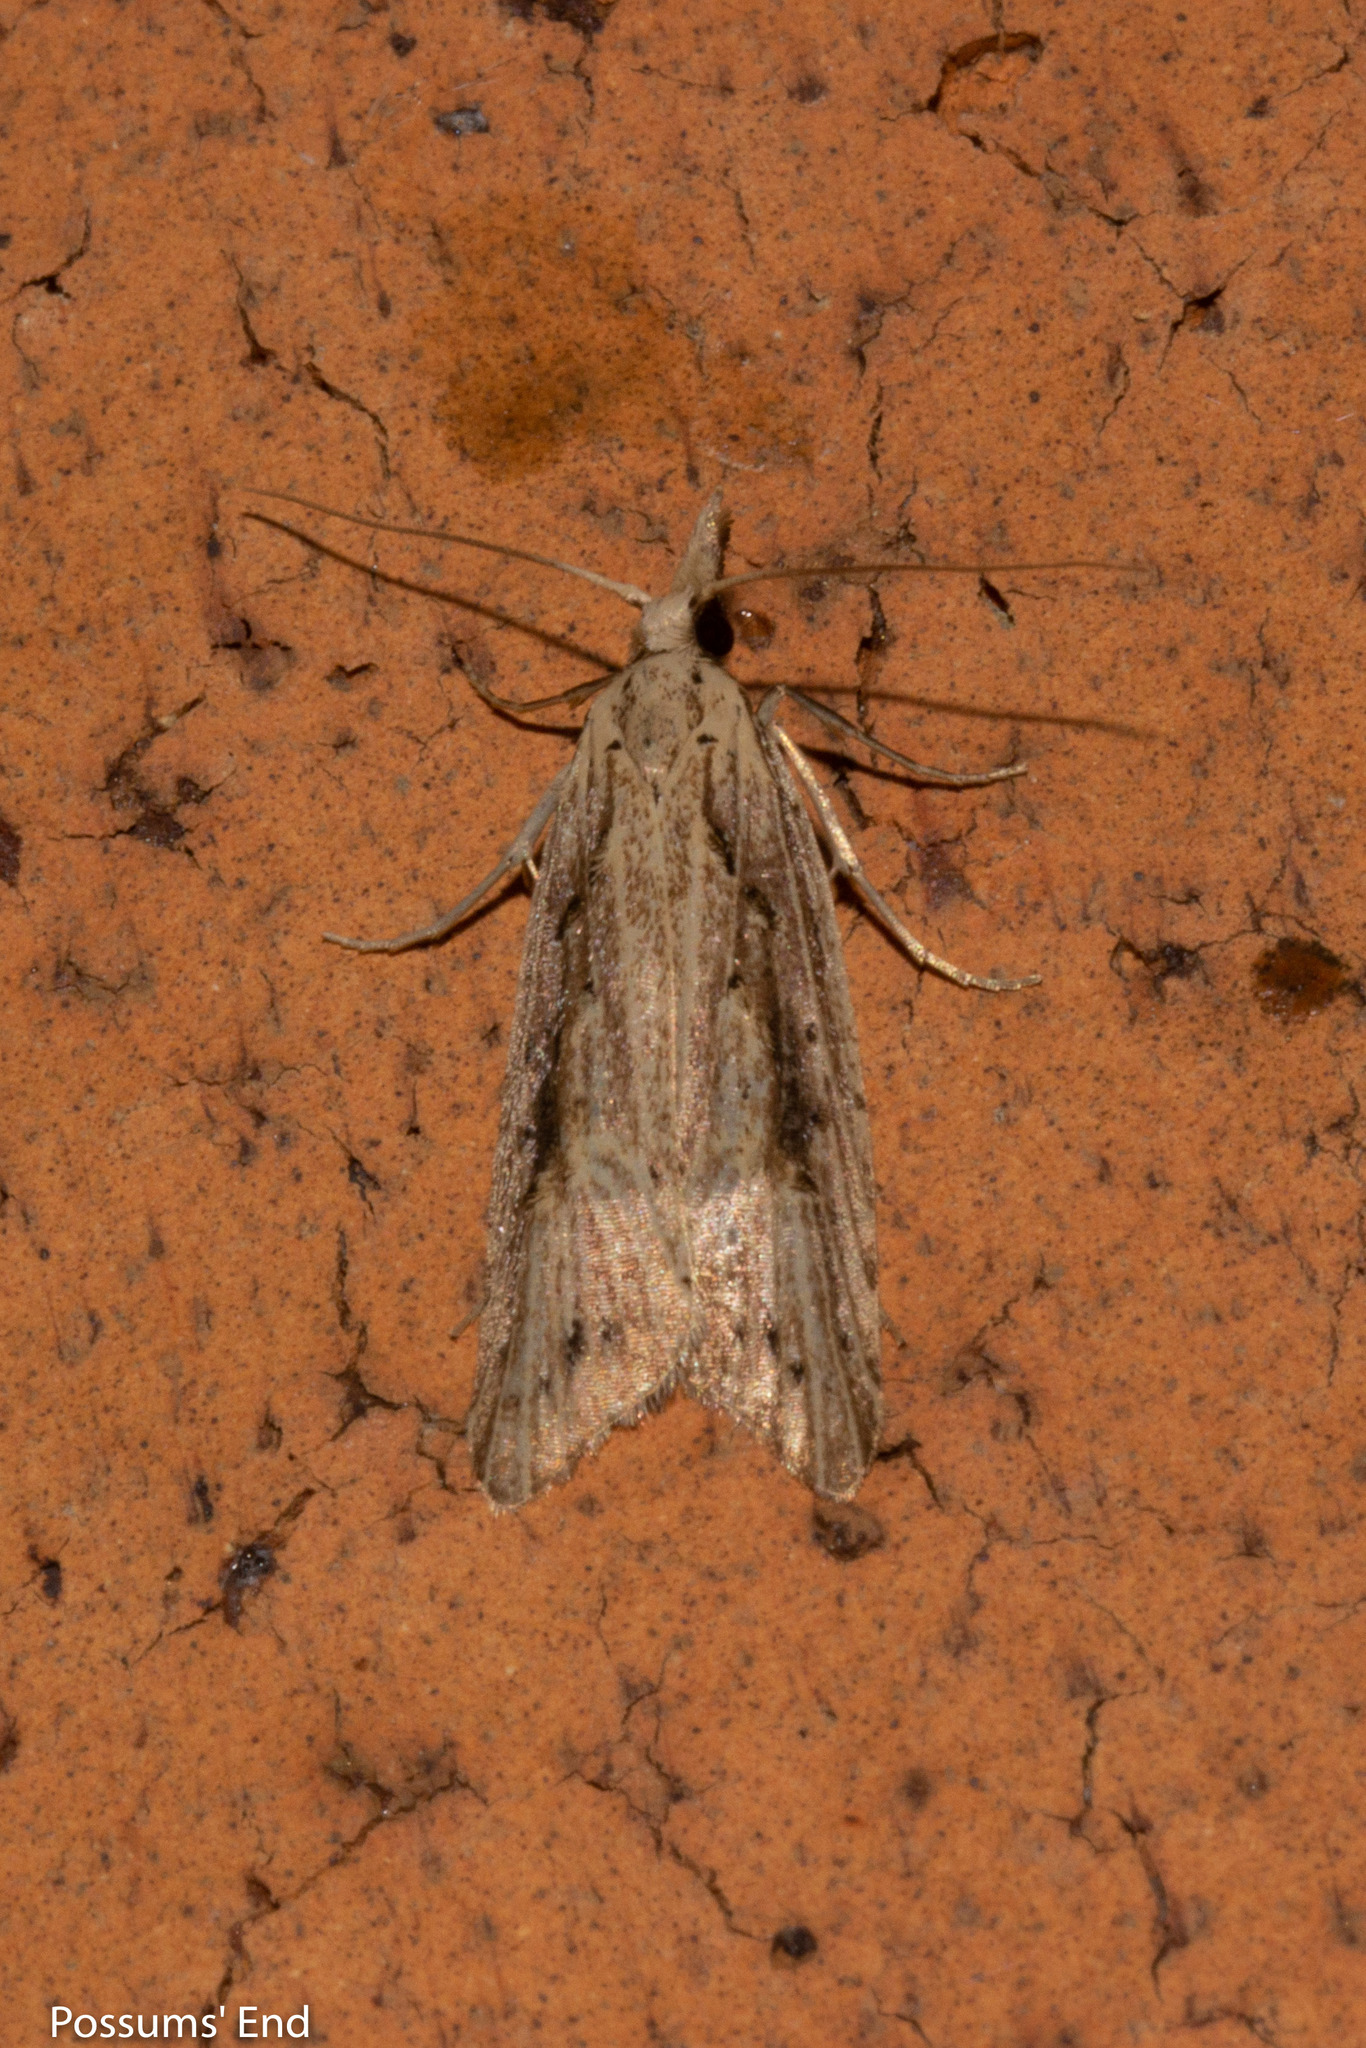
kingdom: Animalia
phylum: Arthropoda
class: Insecta
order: Lepidoptera
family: Carposinidae
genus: Carposina
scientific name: Carposina Heterocrossa exochana
